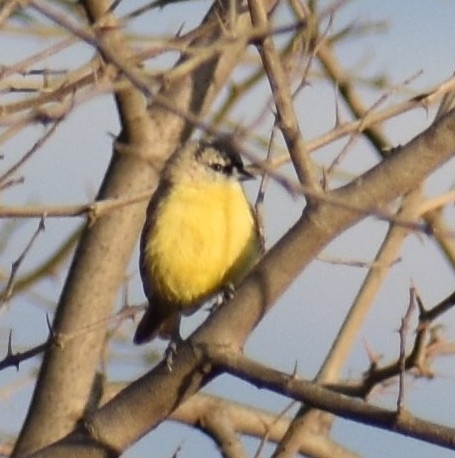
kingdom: Animalia
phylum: Chordata
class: Aves
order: Passeriformes
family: Remizidae
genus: Anthoscopus
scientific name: Anthoscopus minutus
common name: Cape penduline tit
